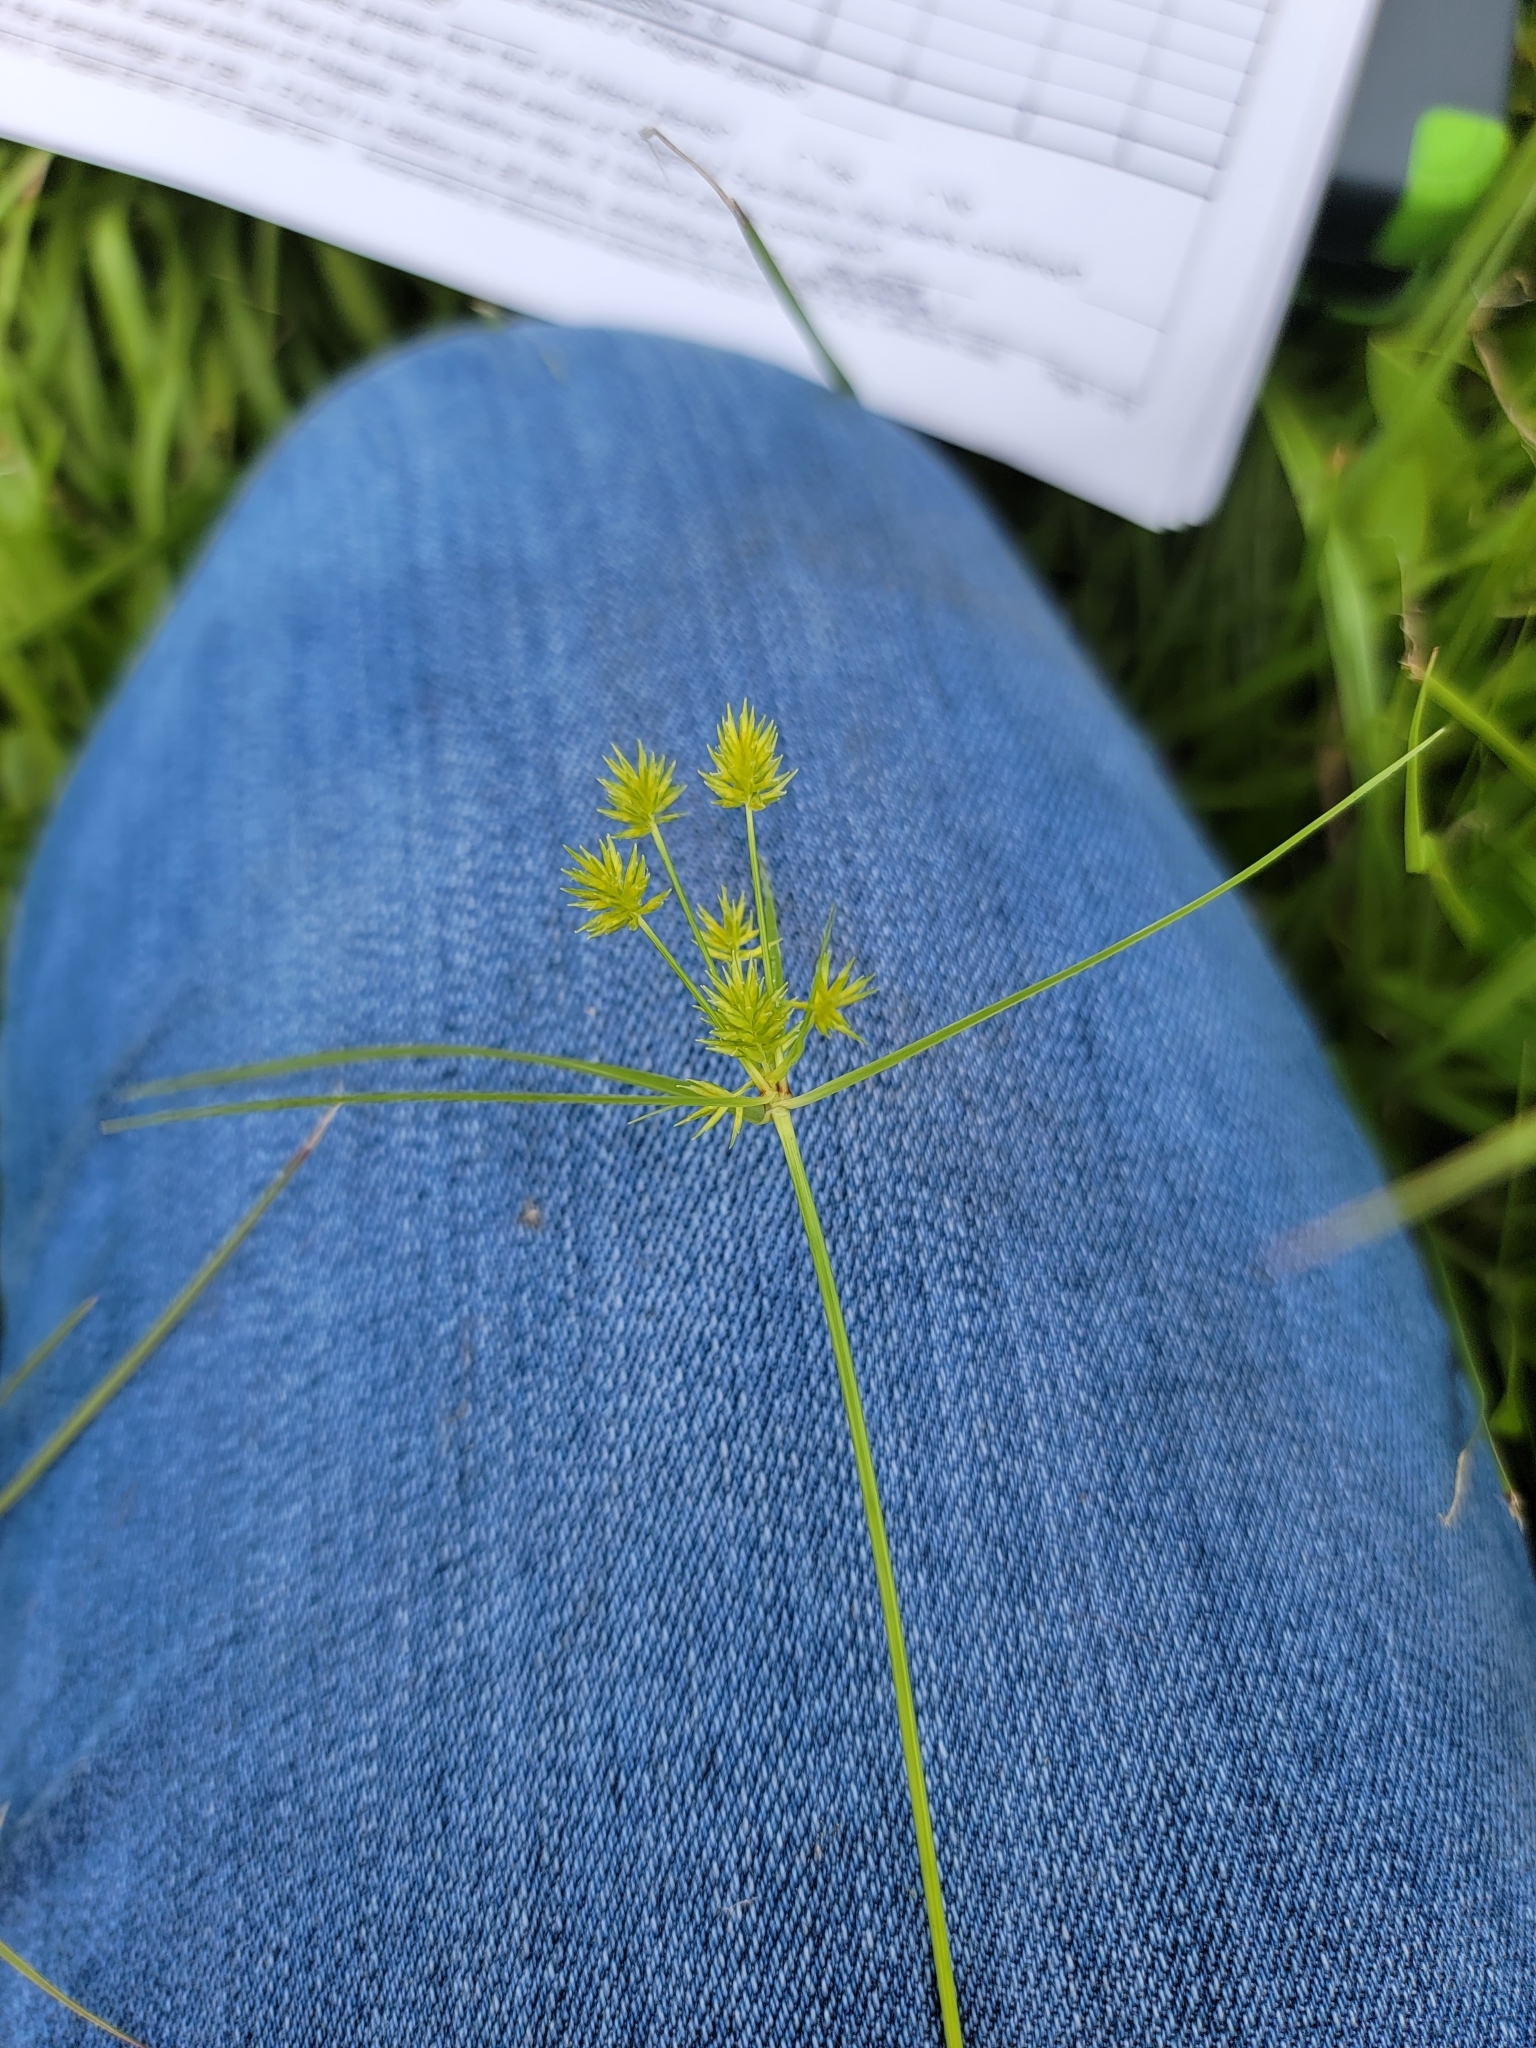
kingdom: Plantae
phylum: Tracheophyta
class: Liliopsida
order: Poales
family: Cyperaceae
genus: Cyperus
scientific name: Cyperus croceus
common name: Baldwin's flatsedge
